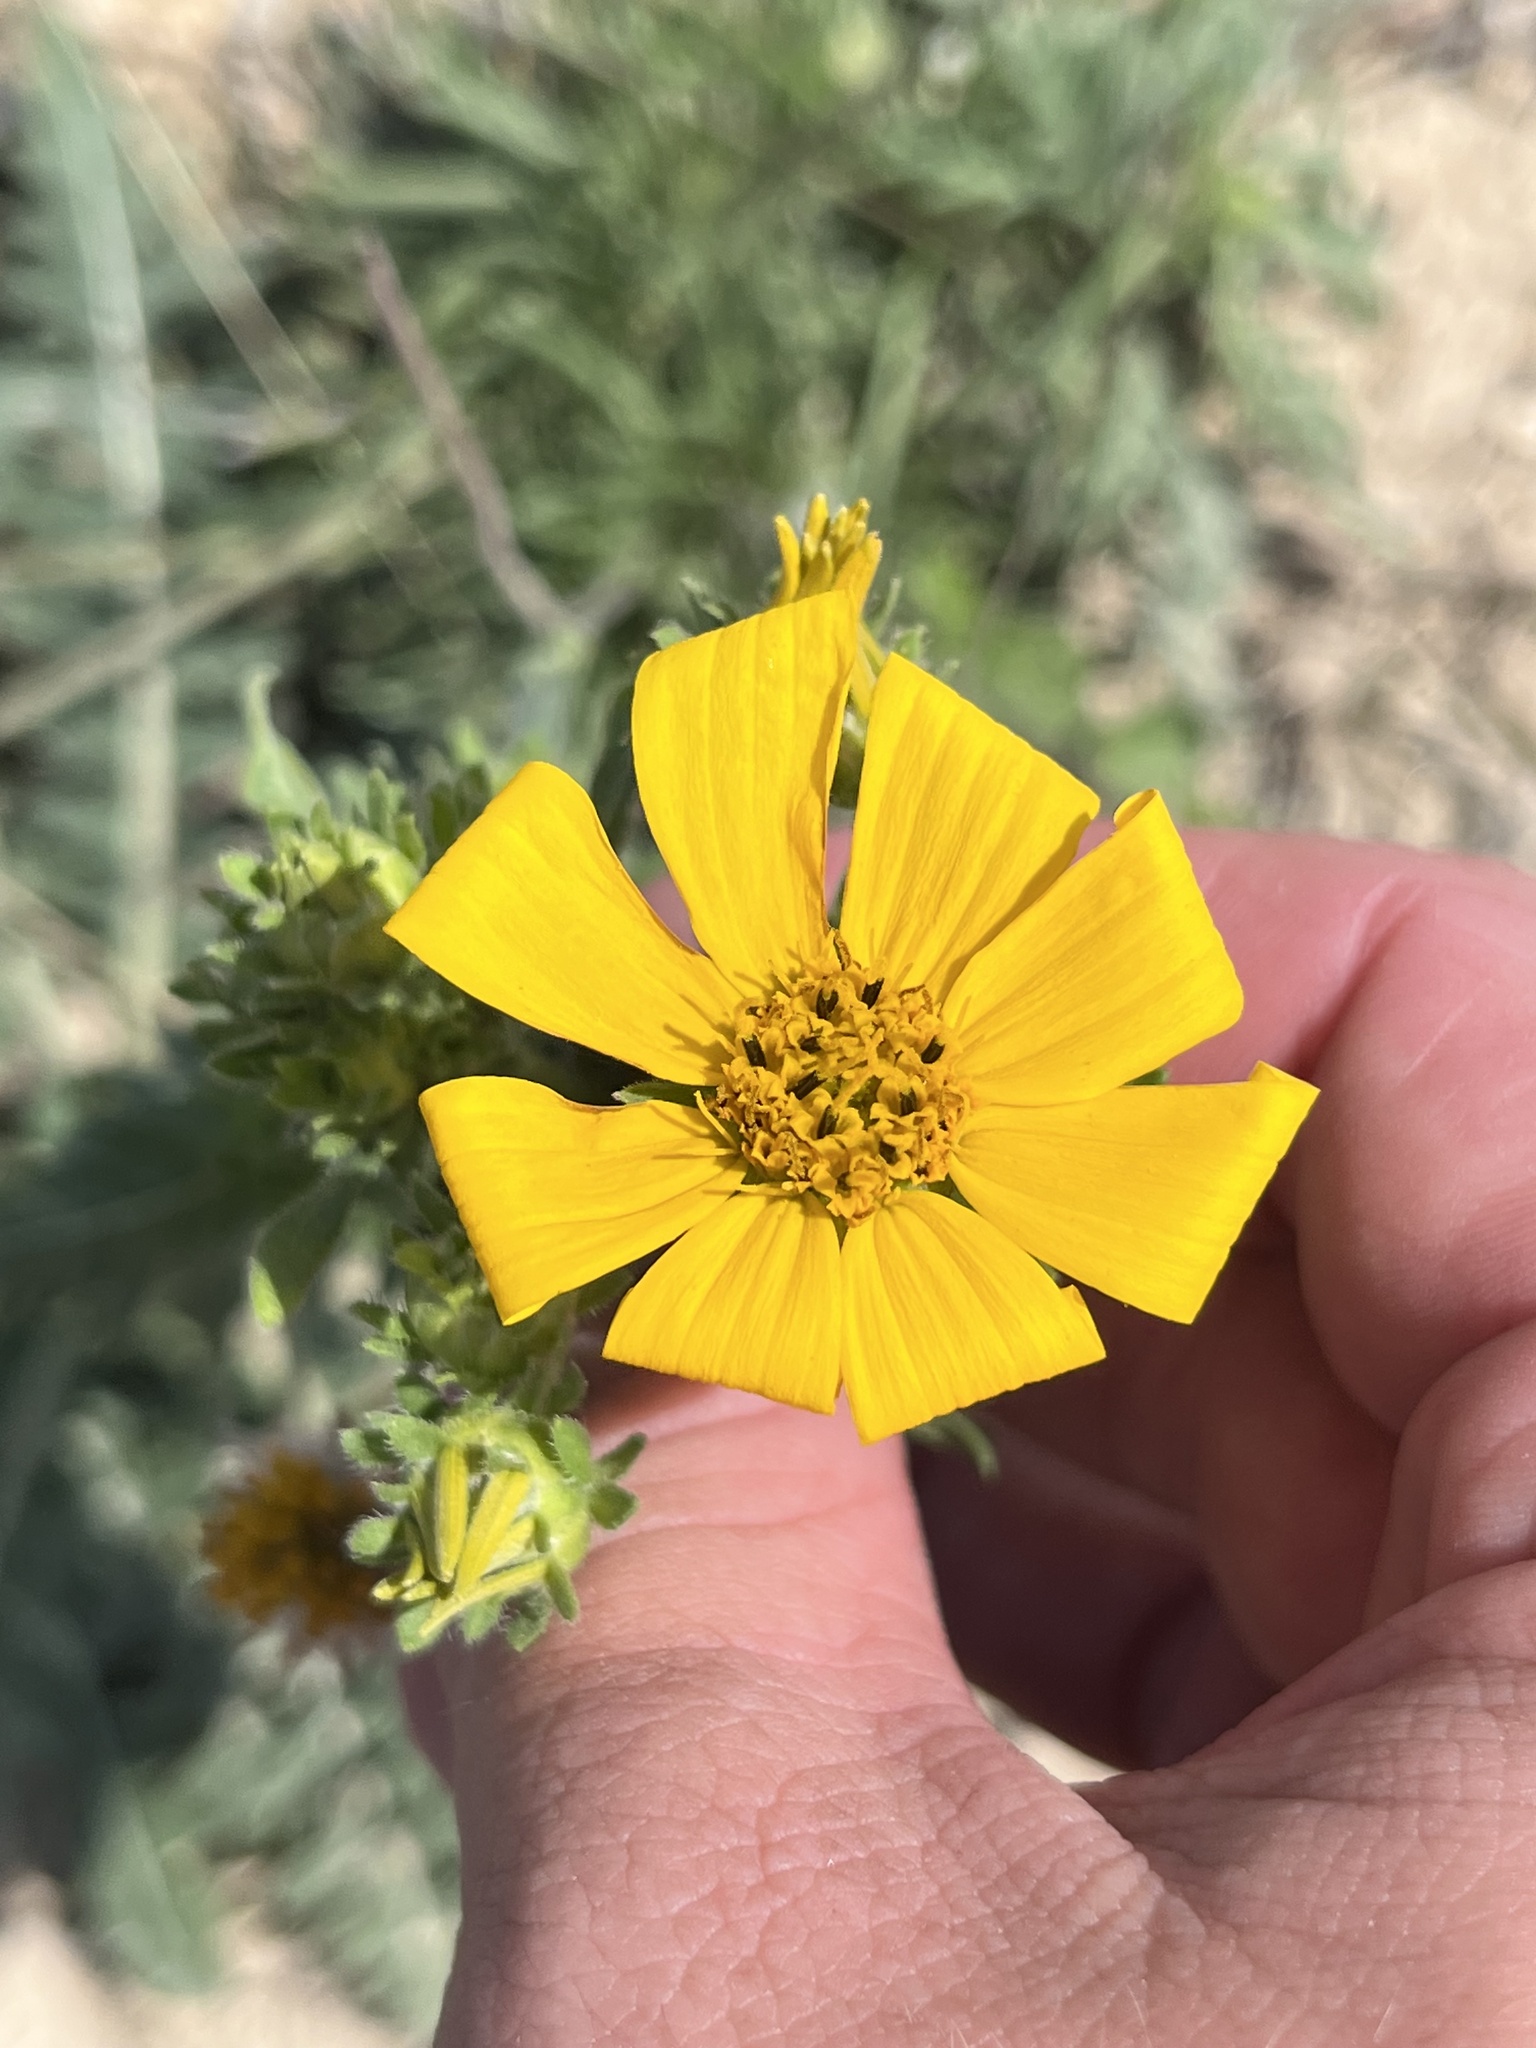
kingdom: Plantae
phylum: Tracheophyta
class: Magnoliopsida
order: Asterales
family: Asteraceae
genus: Engelmannia
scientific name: Engelmannia peristenia
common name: Engelmann's daisy
